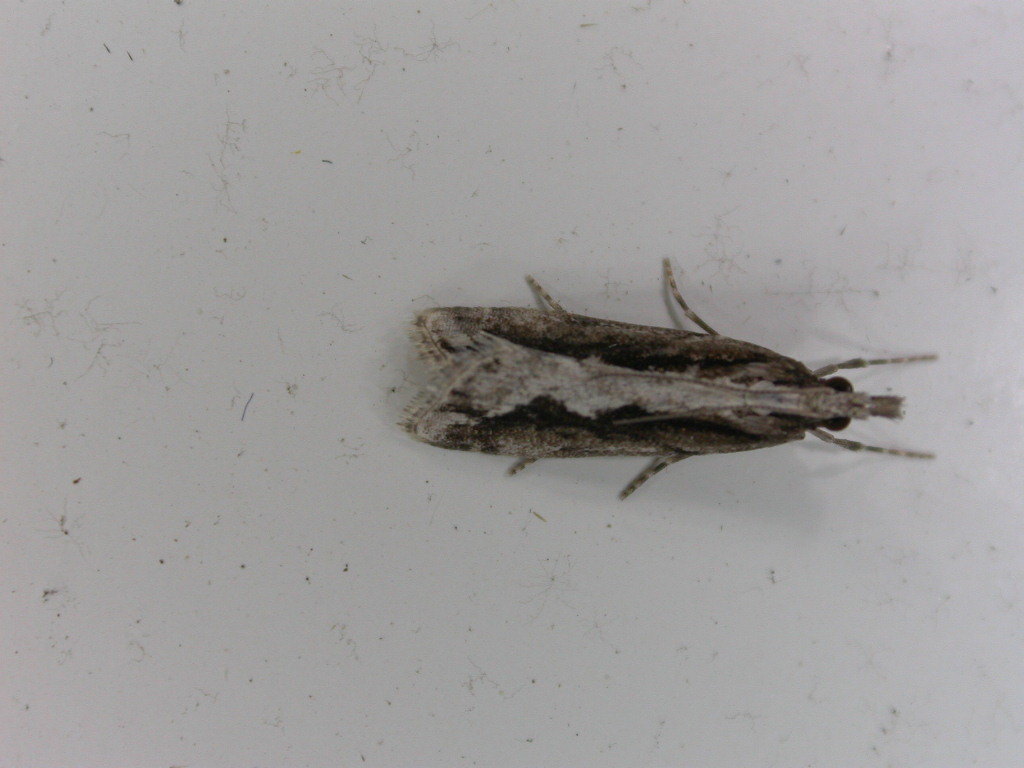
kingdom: Animalia
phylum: Arthropoda
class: Insecta
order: Lepidoptera
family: Crambidae
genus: Eudonia
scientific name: Eudonia steropaea
